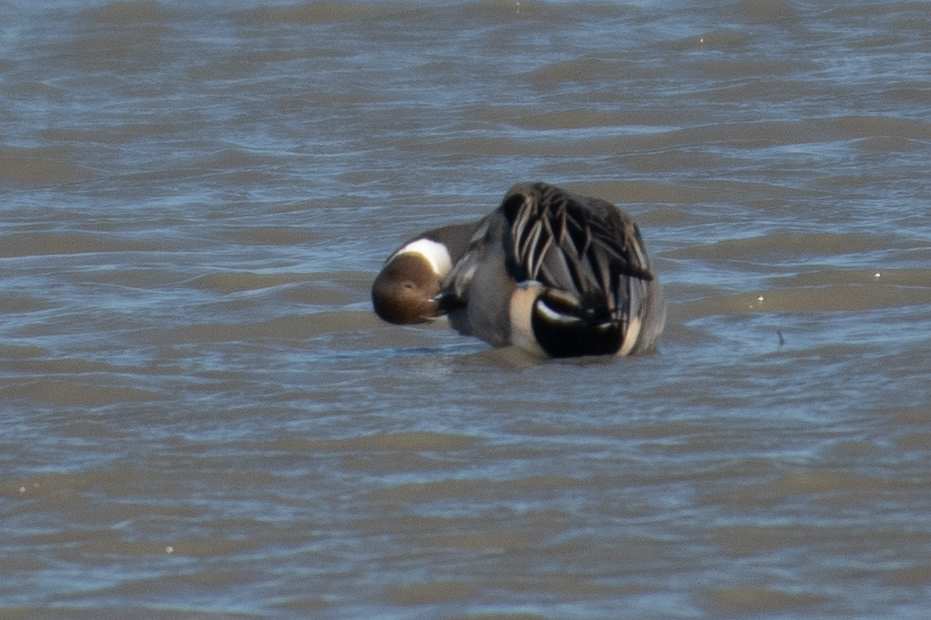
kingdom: Animalia
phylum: Chordata
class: Aves
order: Anseriformes
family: Anatidae
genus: Anas
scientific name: Anas acuta
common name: Northern pintail
